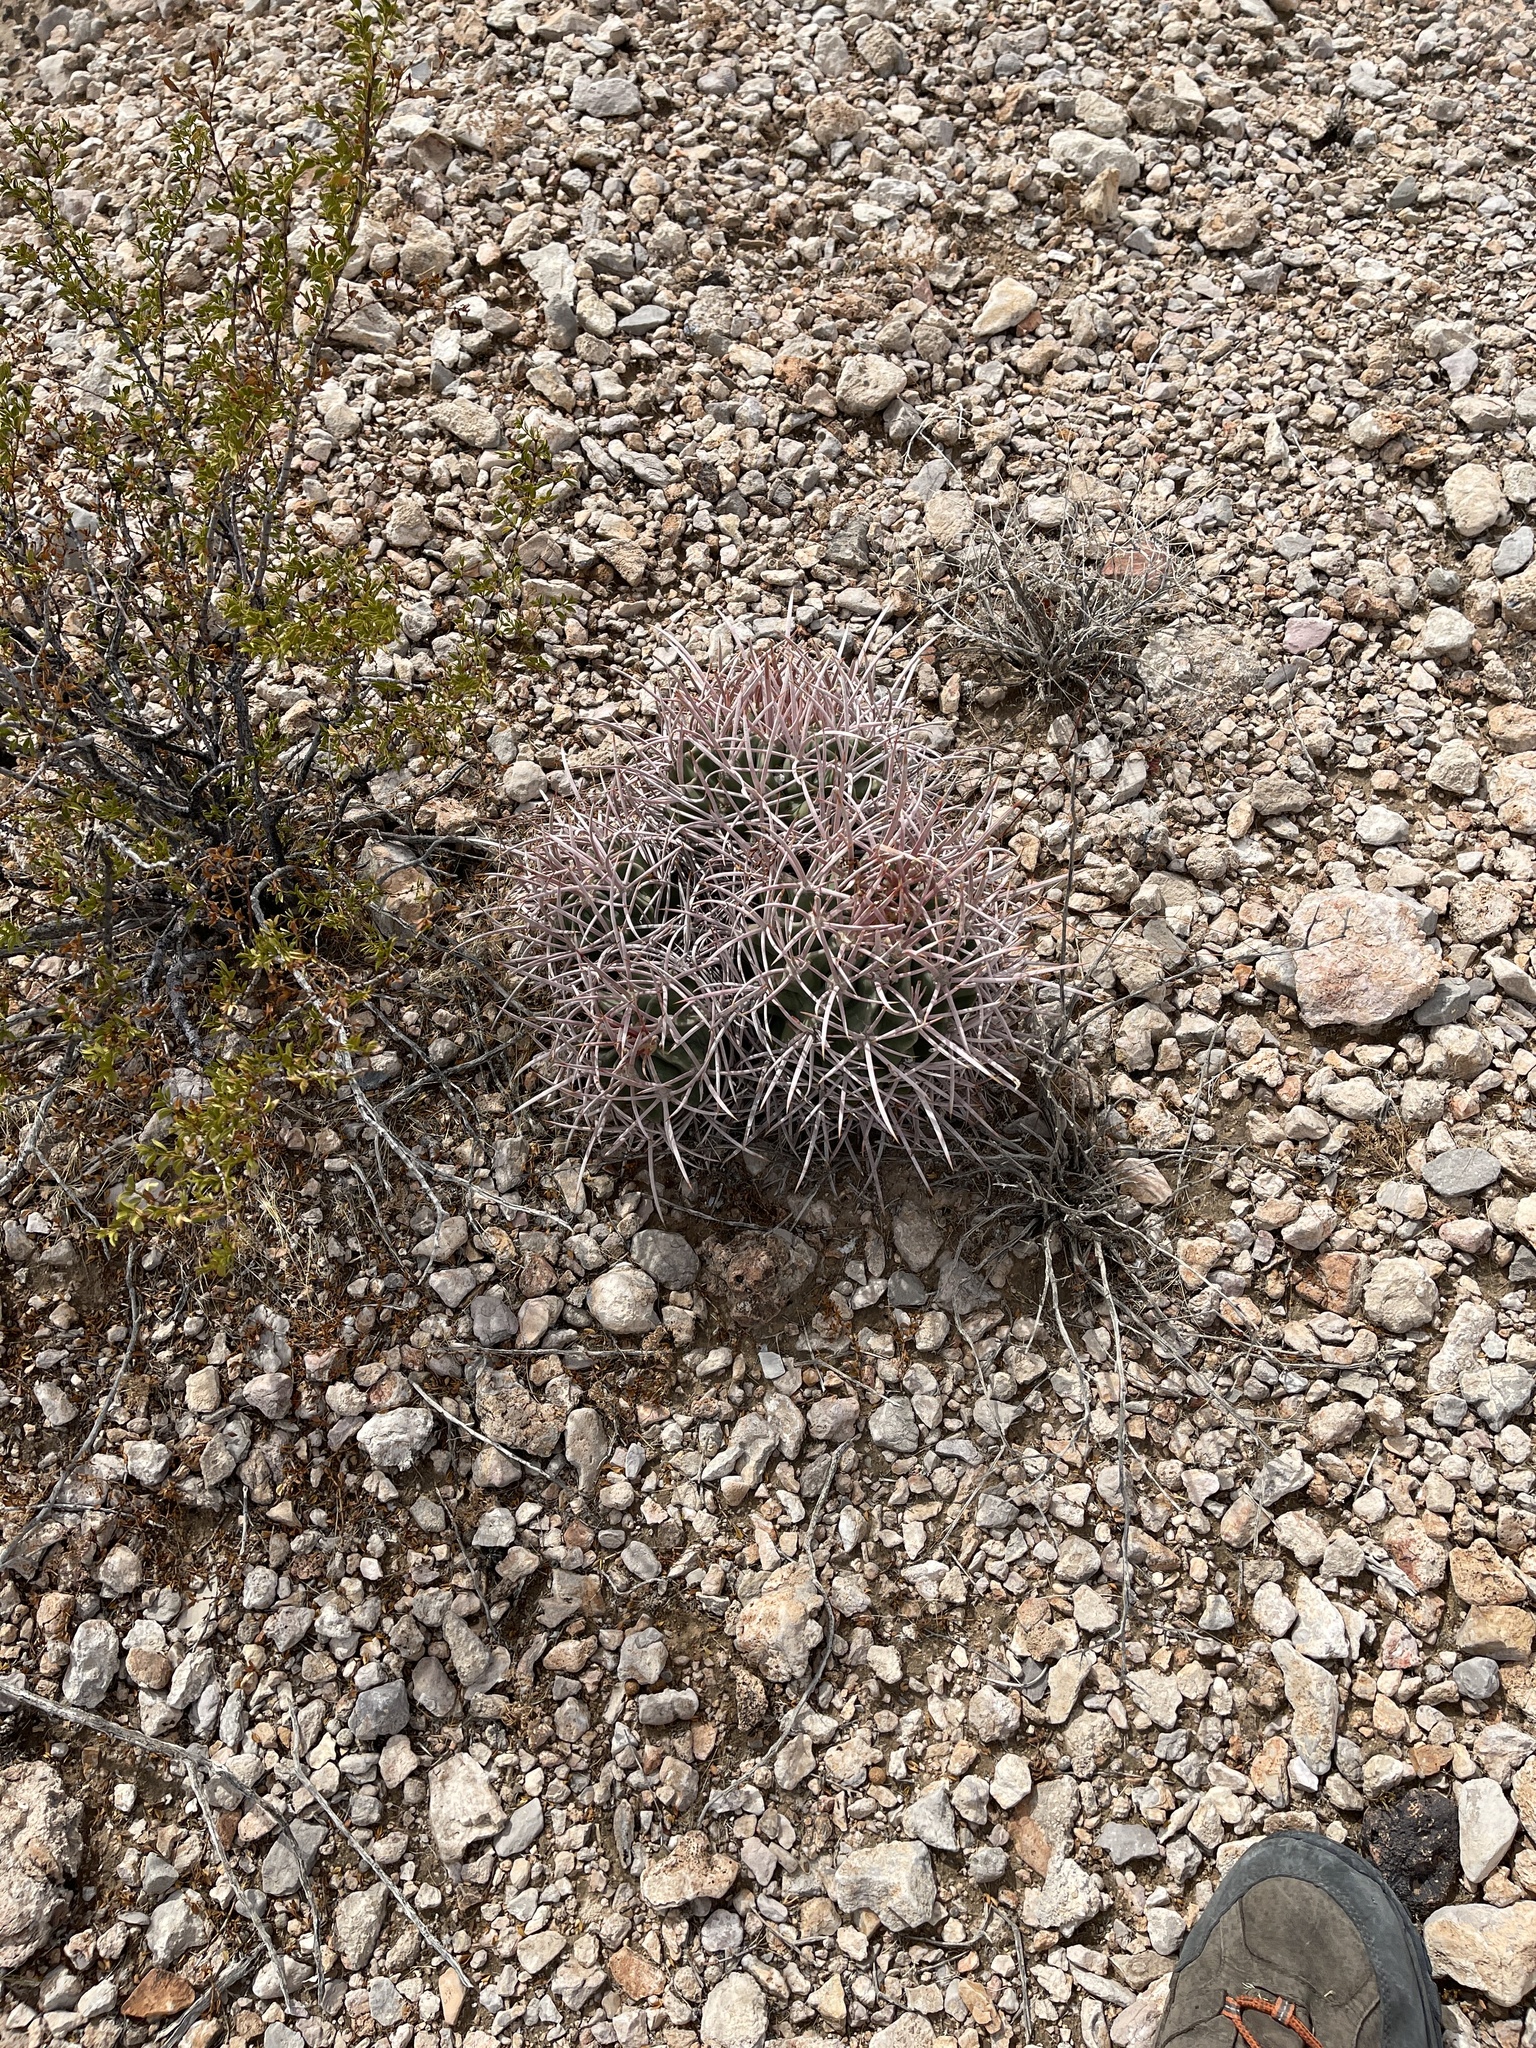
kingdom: Plantae
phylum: Tracheophyta
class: Magnoliopsida
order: Caryophyllales
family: Cactaceae
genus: Echinocactus
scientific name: Echinocactus polycephalus
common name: Cottontop cactus
